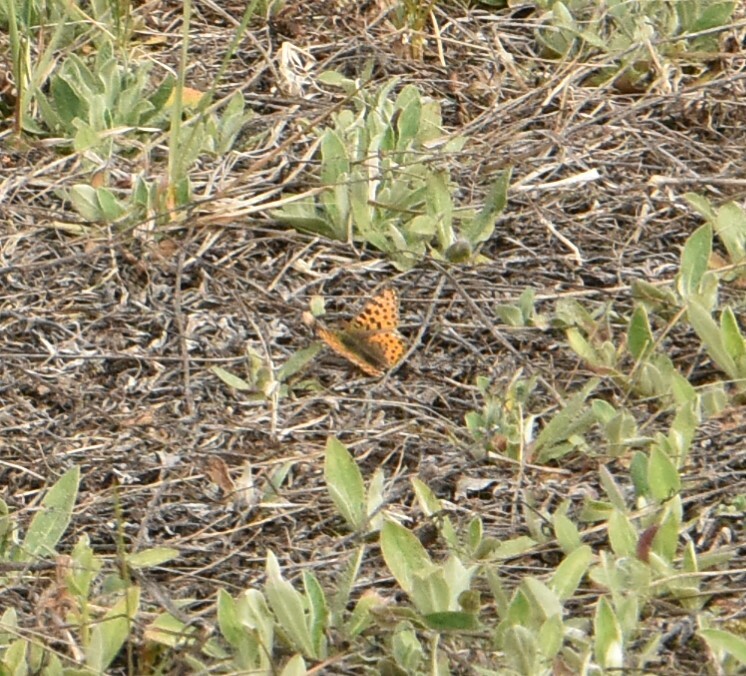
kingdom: Animalia
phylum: Arthropoda
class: Insecta
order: Lepidoptera
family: Nymphalidae
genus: Issoria
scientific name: Issoria lathonia
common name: Queen of spain fritillary
